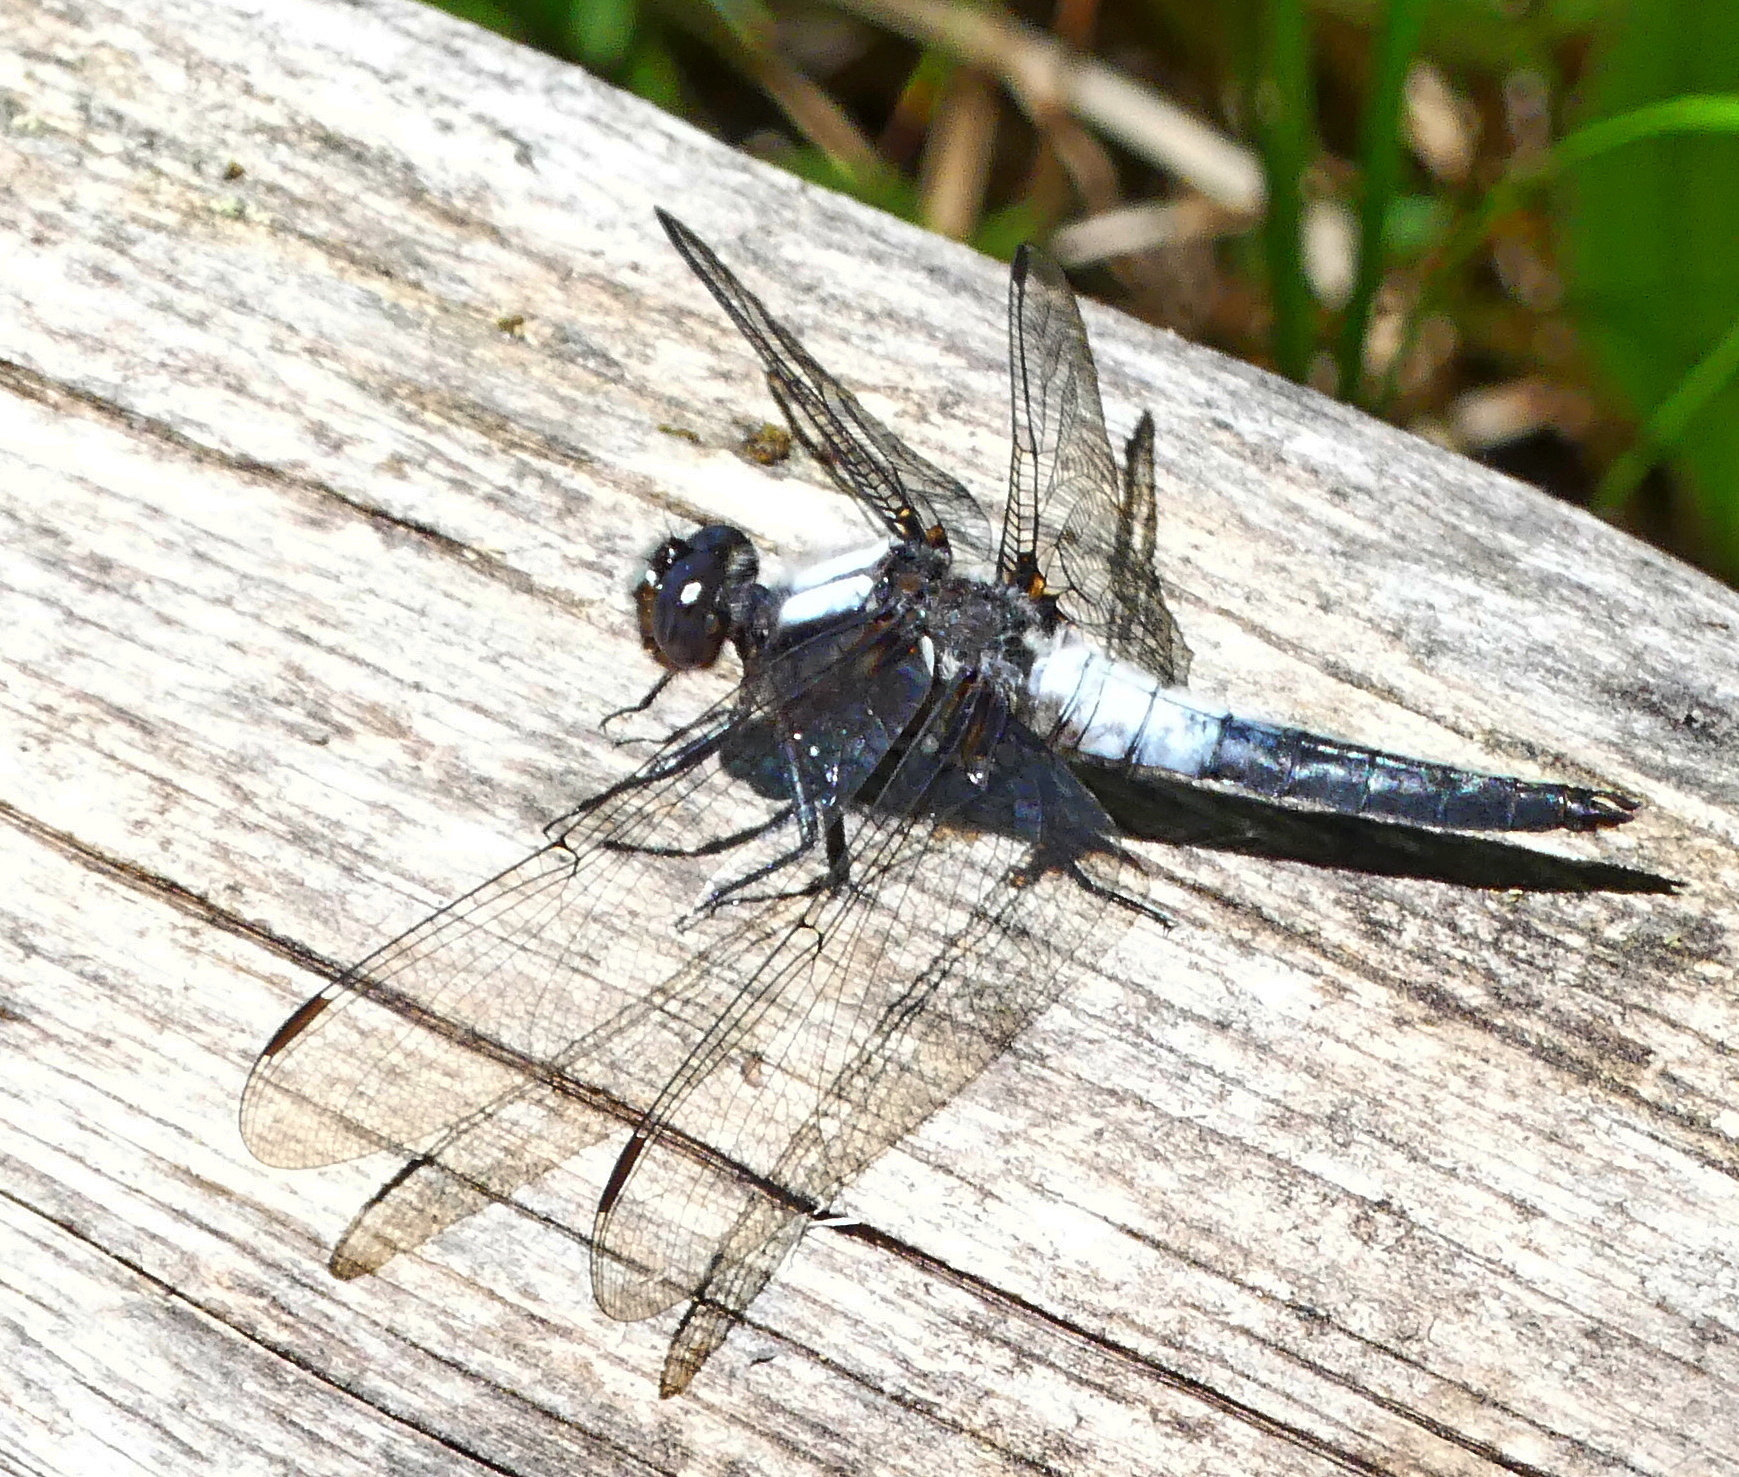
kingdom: Animalia
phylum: Arthropoda
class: Insecta
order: Odonata
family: Libellulidae
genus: Ladona
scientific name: Ladona julia
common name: Chalk-fronted corporal
